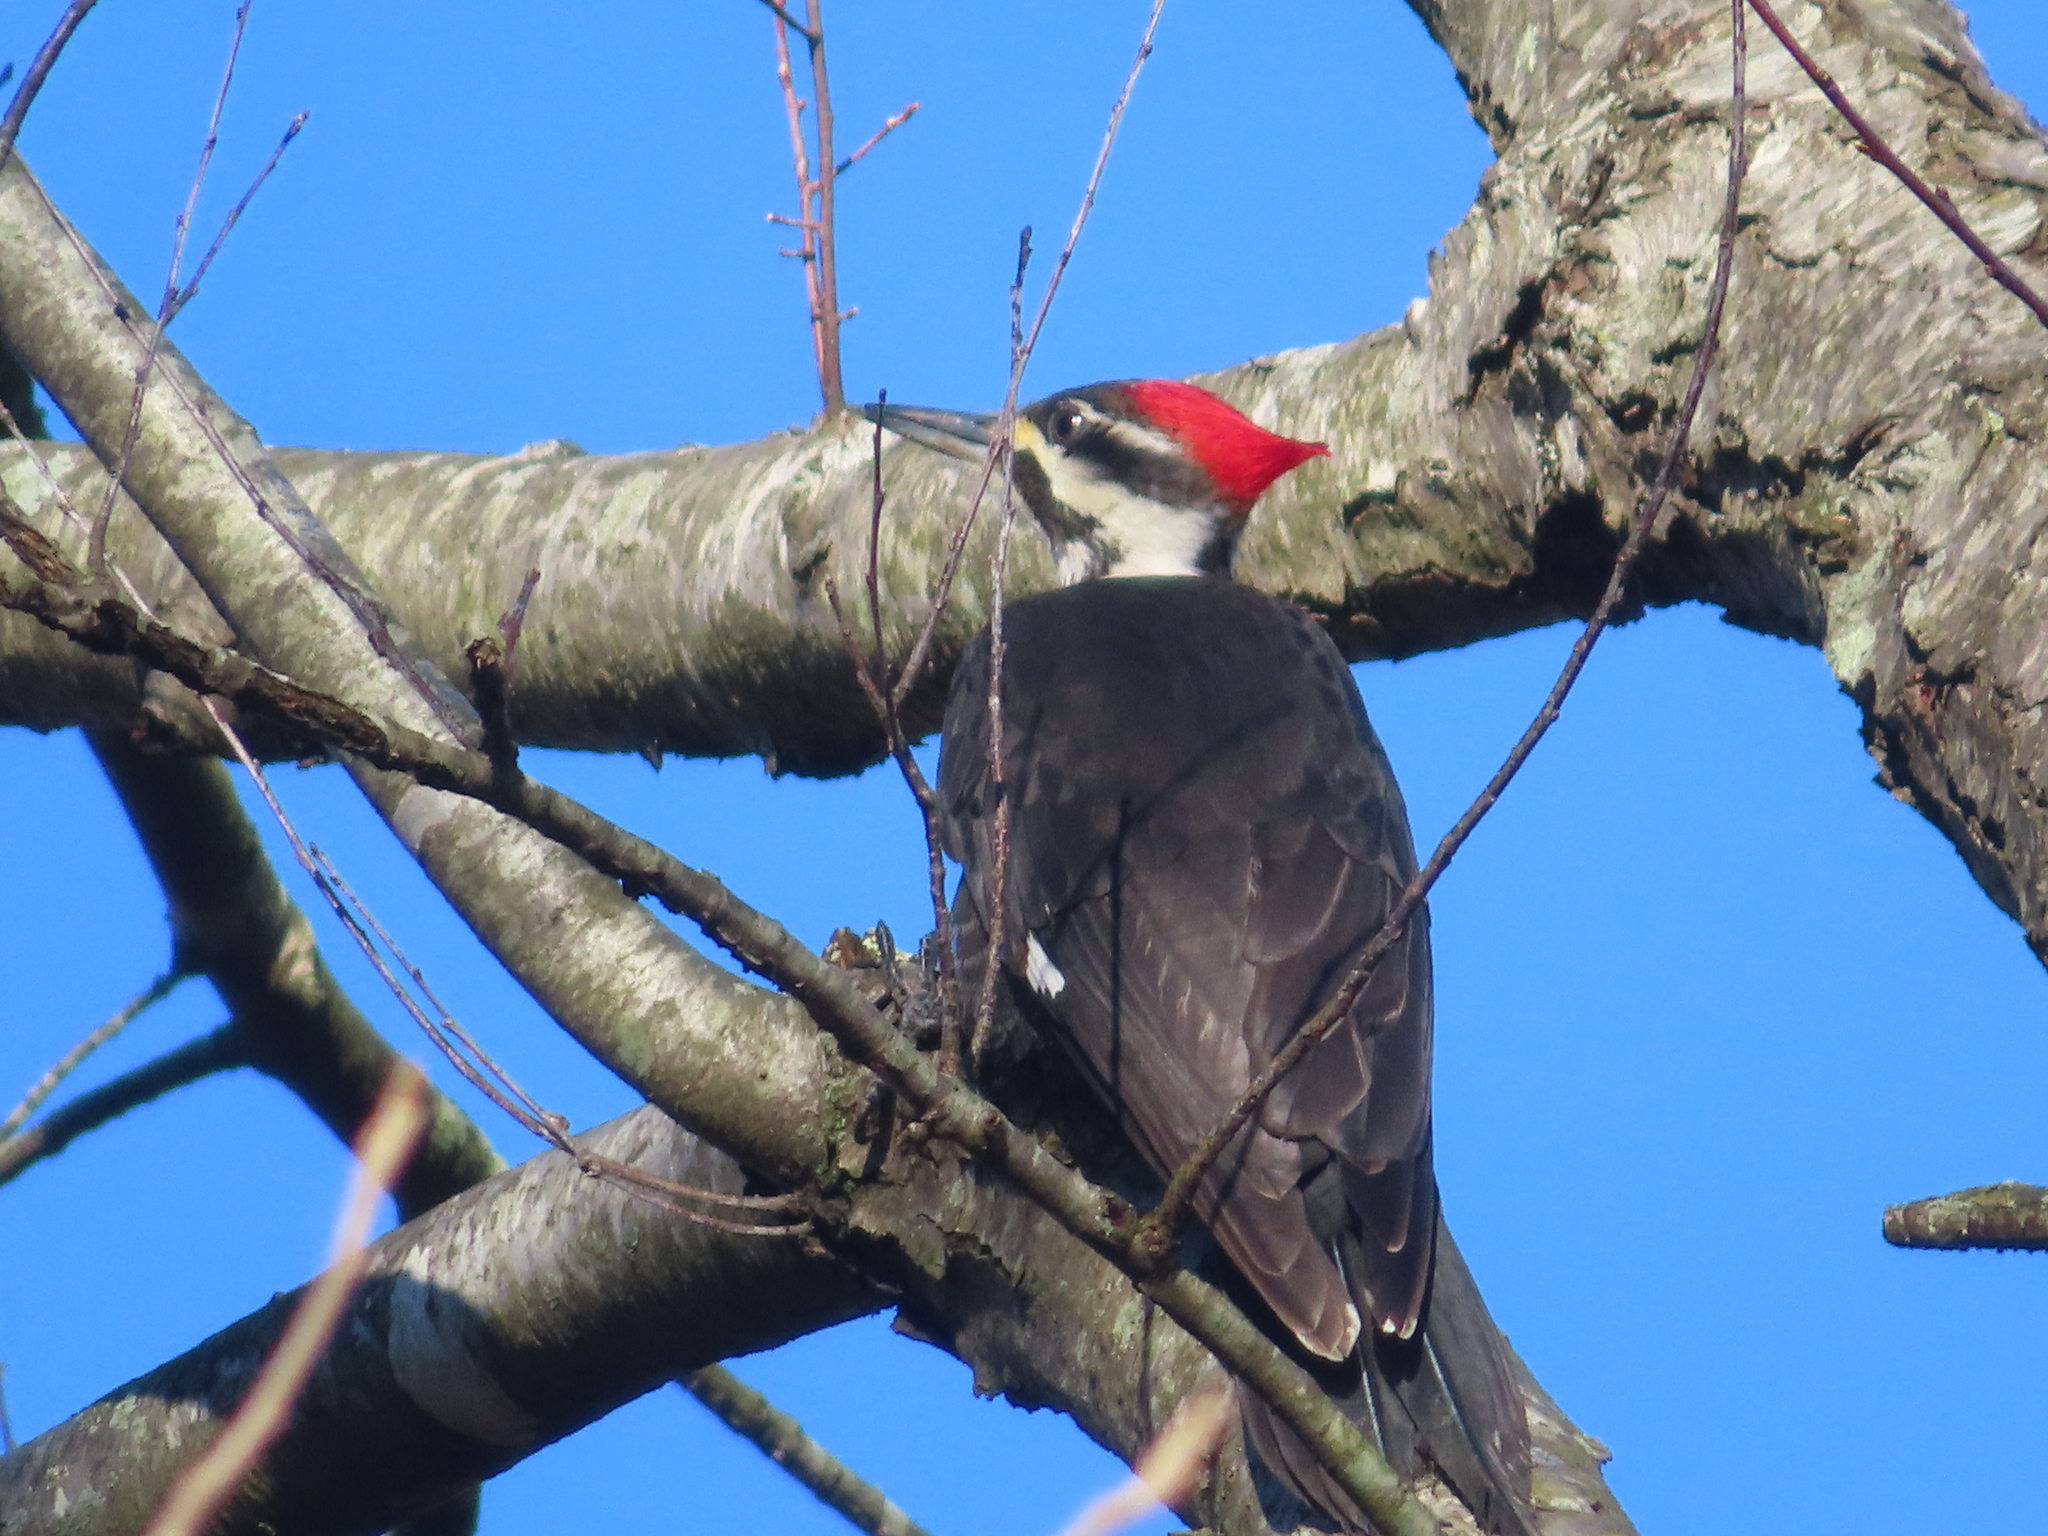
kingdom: Animalia
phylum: Chordata
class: Aves
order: Piciformes
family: Picidae
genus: Dryocopus
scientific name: Dryocopus pileatus
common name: Pileated woodpecker
